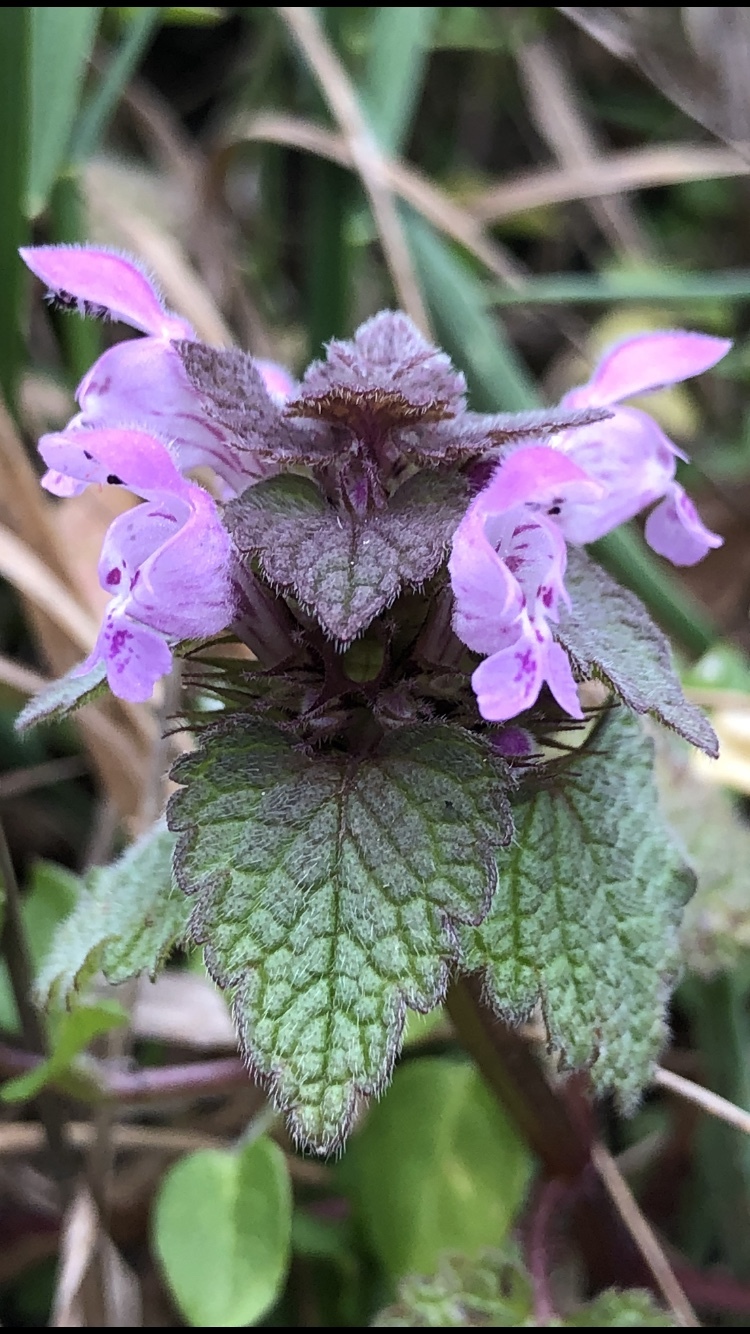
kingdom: Plantae
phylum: Tracheophyta
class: Magnoliopsida
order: Lamiales
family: Lamiaceae
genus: Lamium
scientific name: Lamium purpureum
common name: Red dead-nettle
